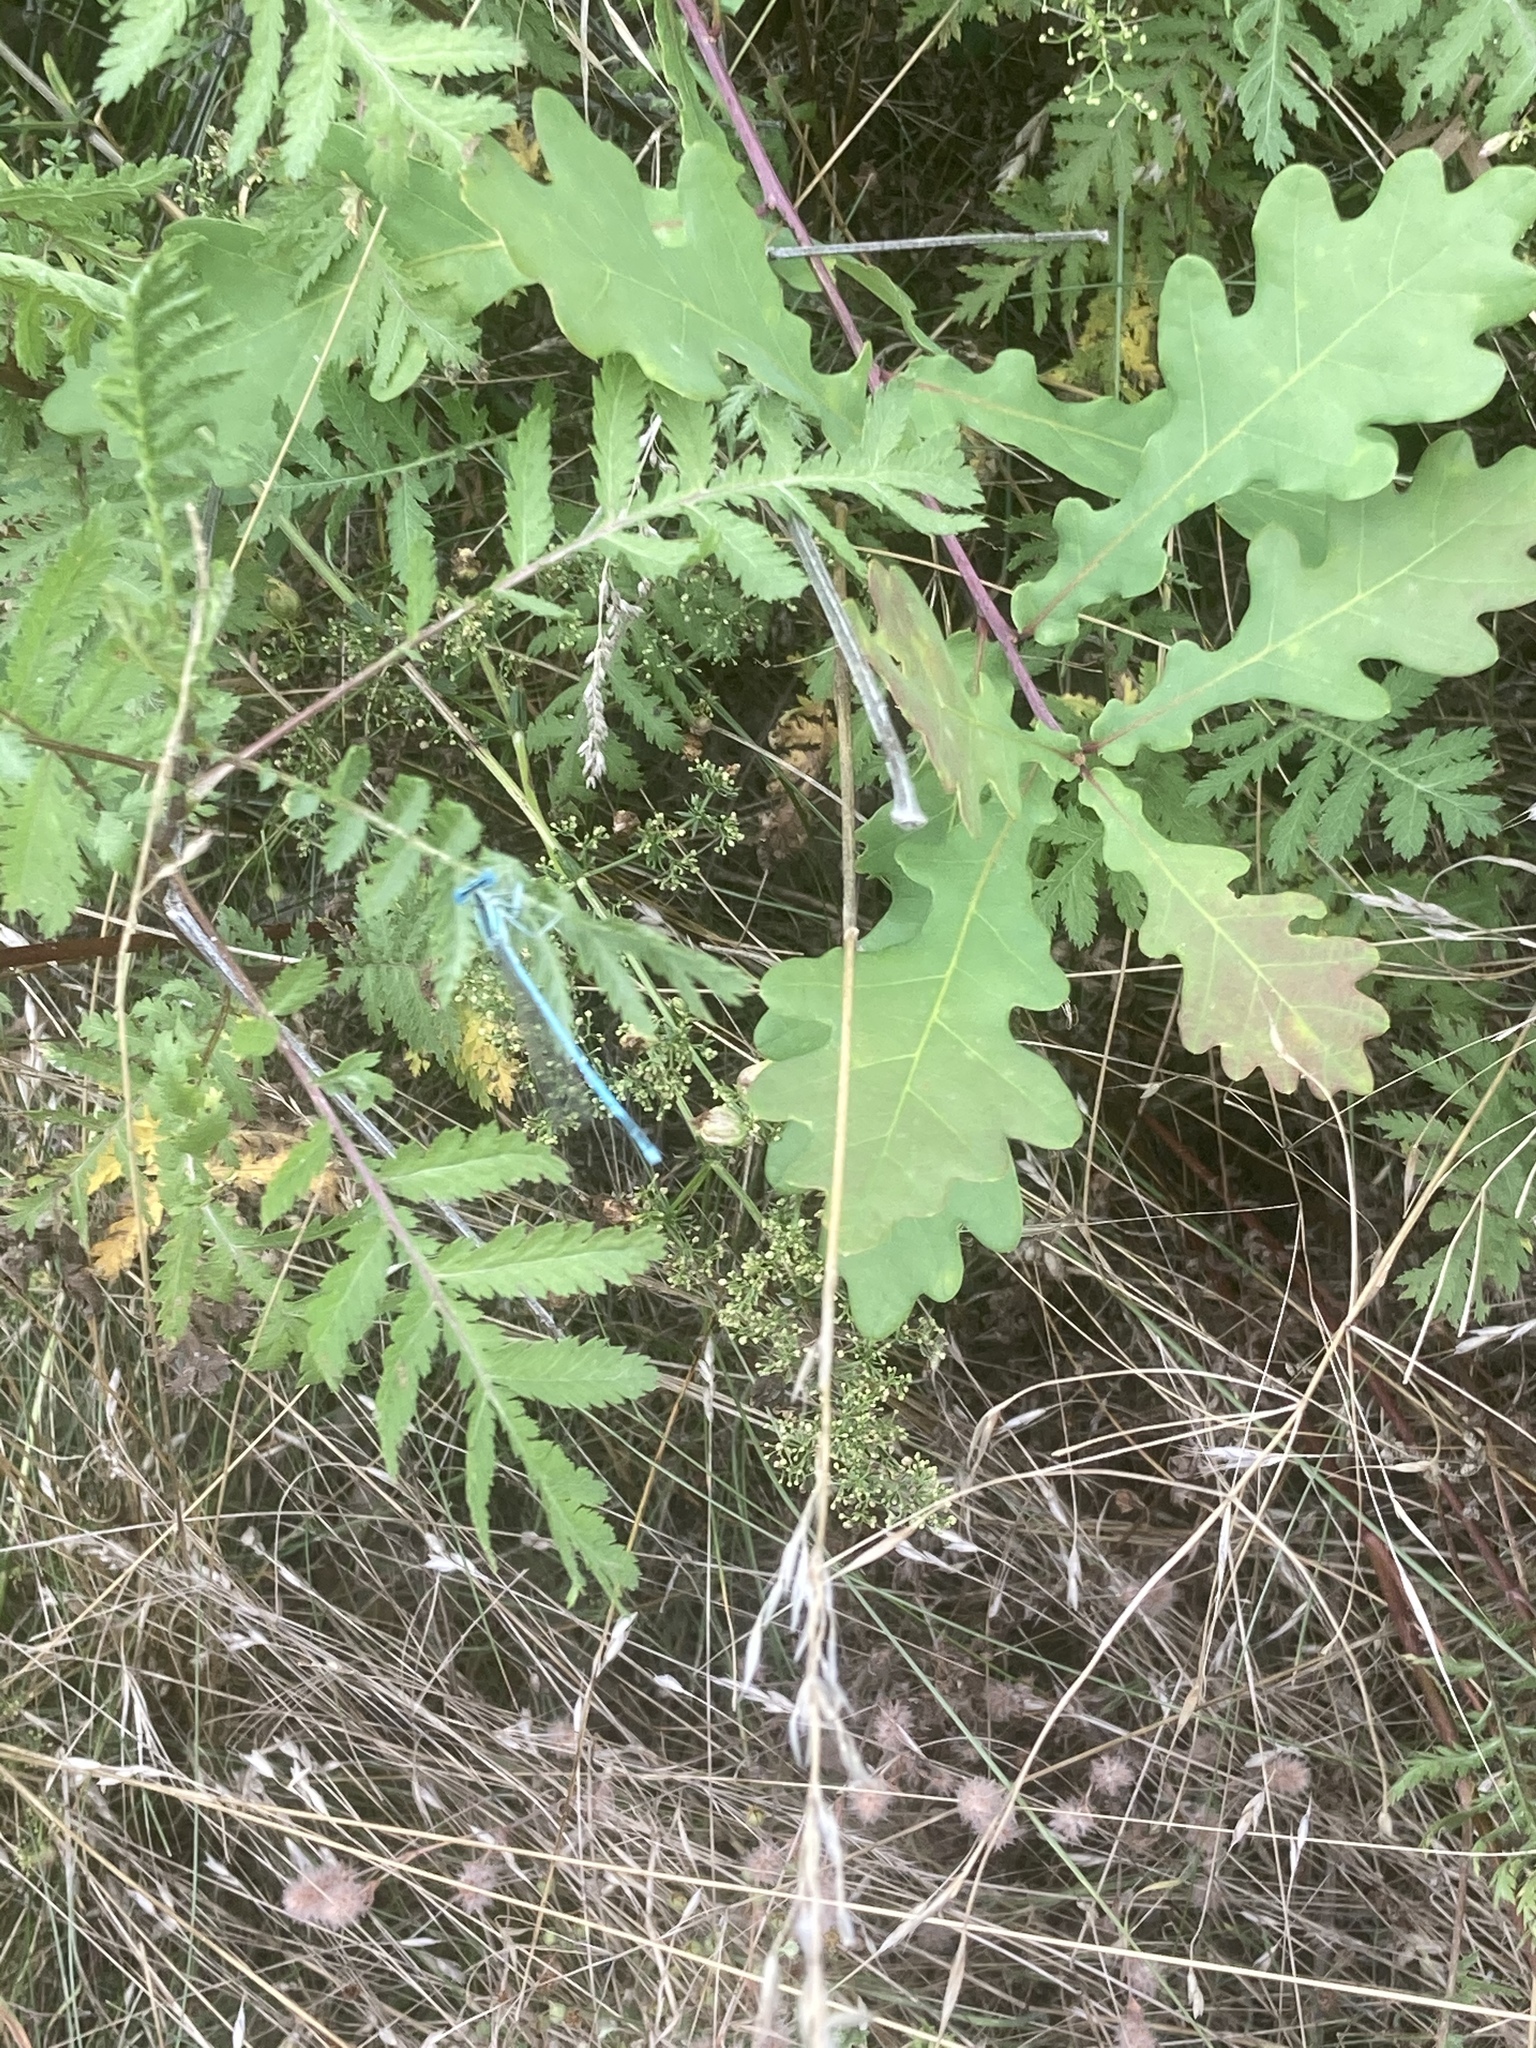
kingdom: Animalia
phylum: Arthropoda
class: Insecta
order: Odonata
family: Platycnemididae
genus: Platycnemis
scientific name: Platycnemis pennipes
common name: White-legged damselfly
